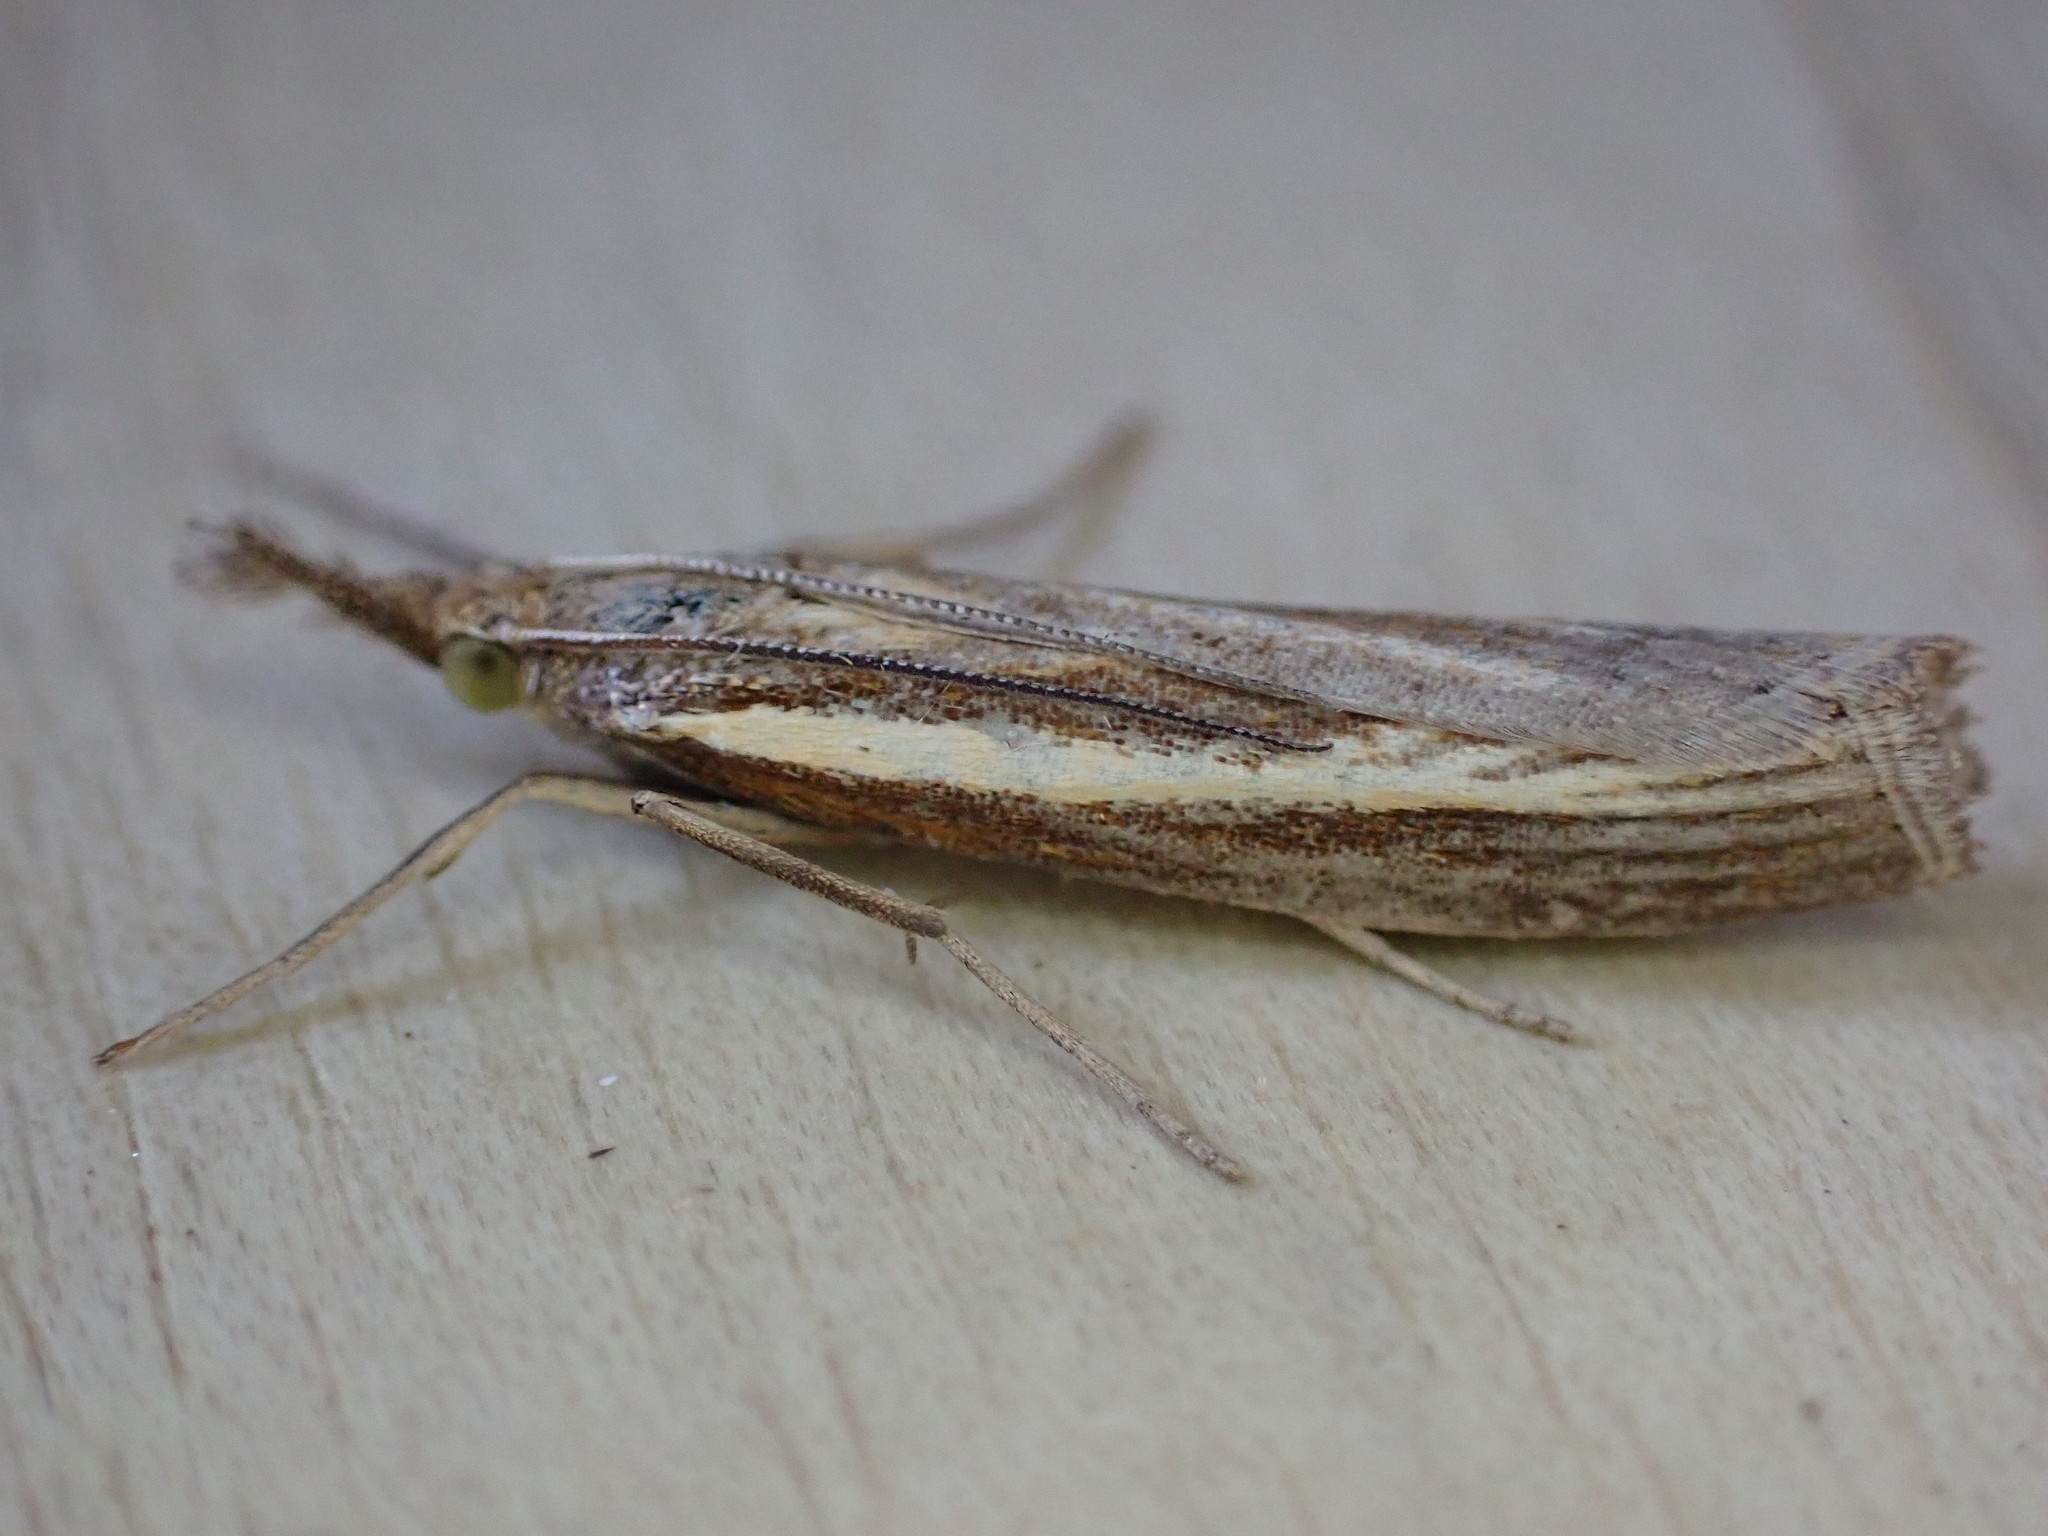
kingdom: Animalia
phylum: Arthropoda
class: Insecta
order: Lepidoptera
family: Crambidae
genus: Agriphila
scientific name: Agriphila tristellus
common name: Common grass-veneer
